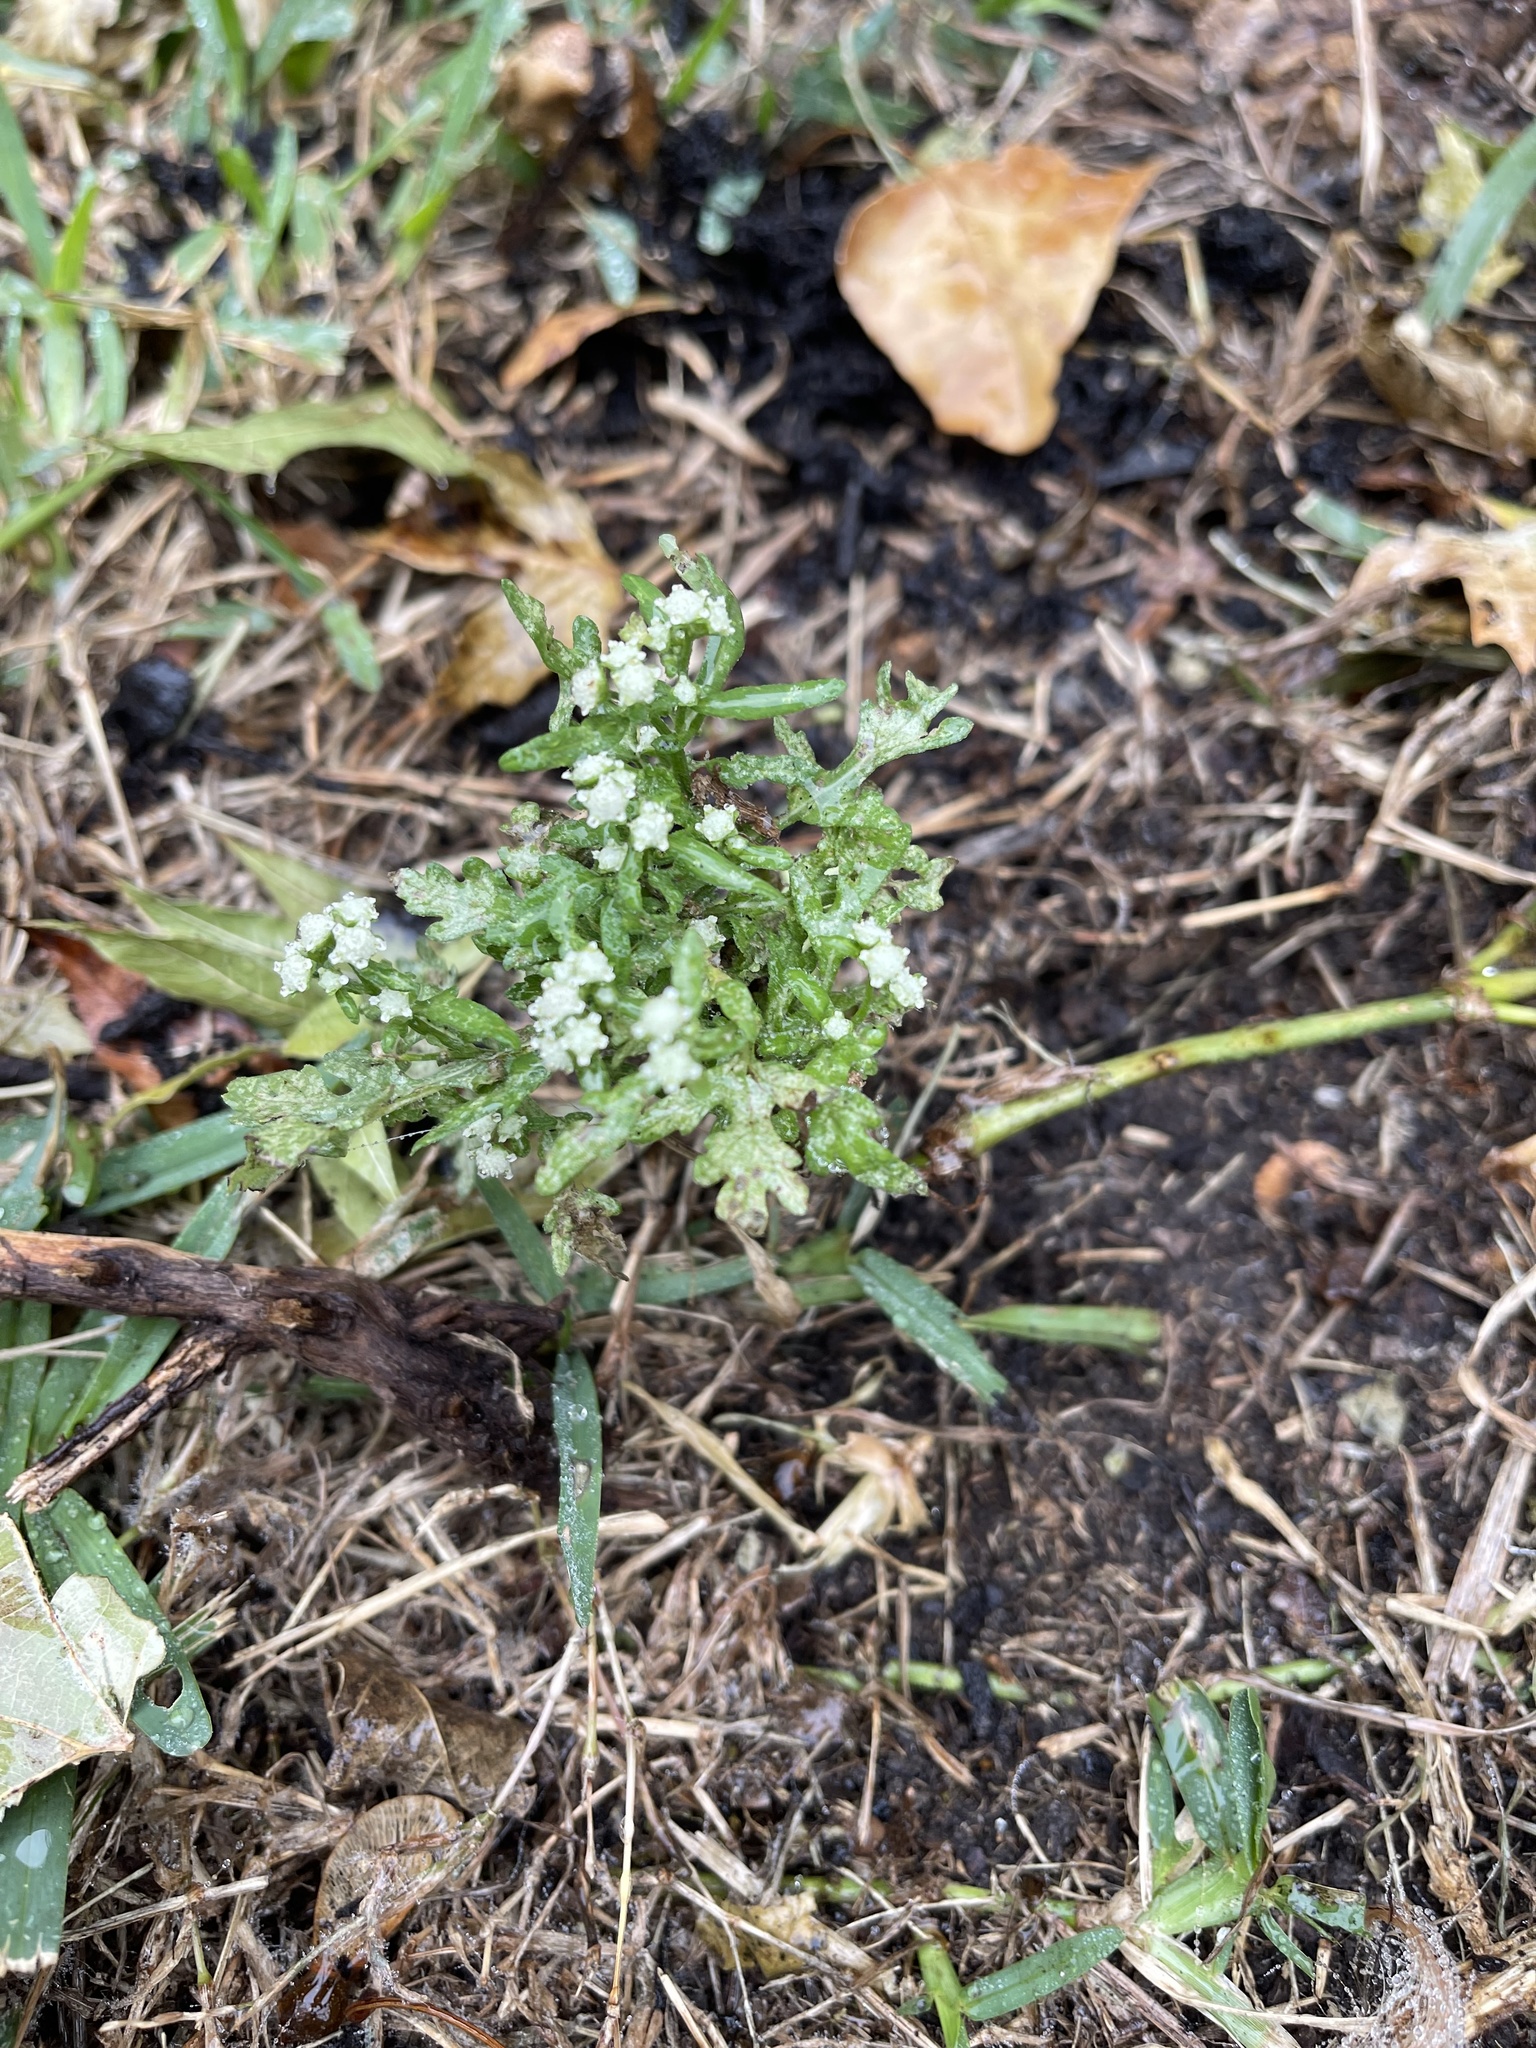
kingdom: Plantae
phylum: Tracheophyta
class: Magnoliopsida
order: Asterales
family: Asteraceae
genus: Parthenium
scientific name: Parthenium hysterophorus
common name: Santa maria feverfew
